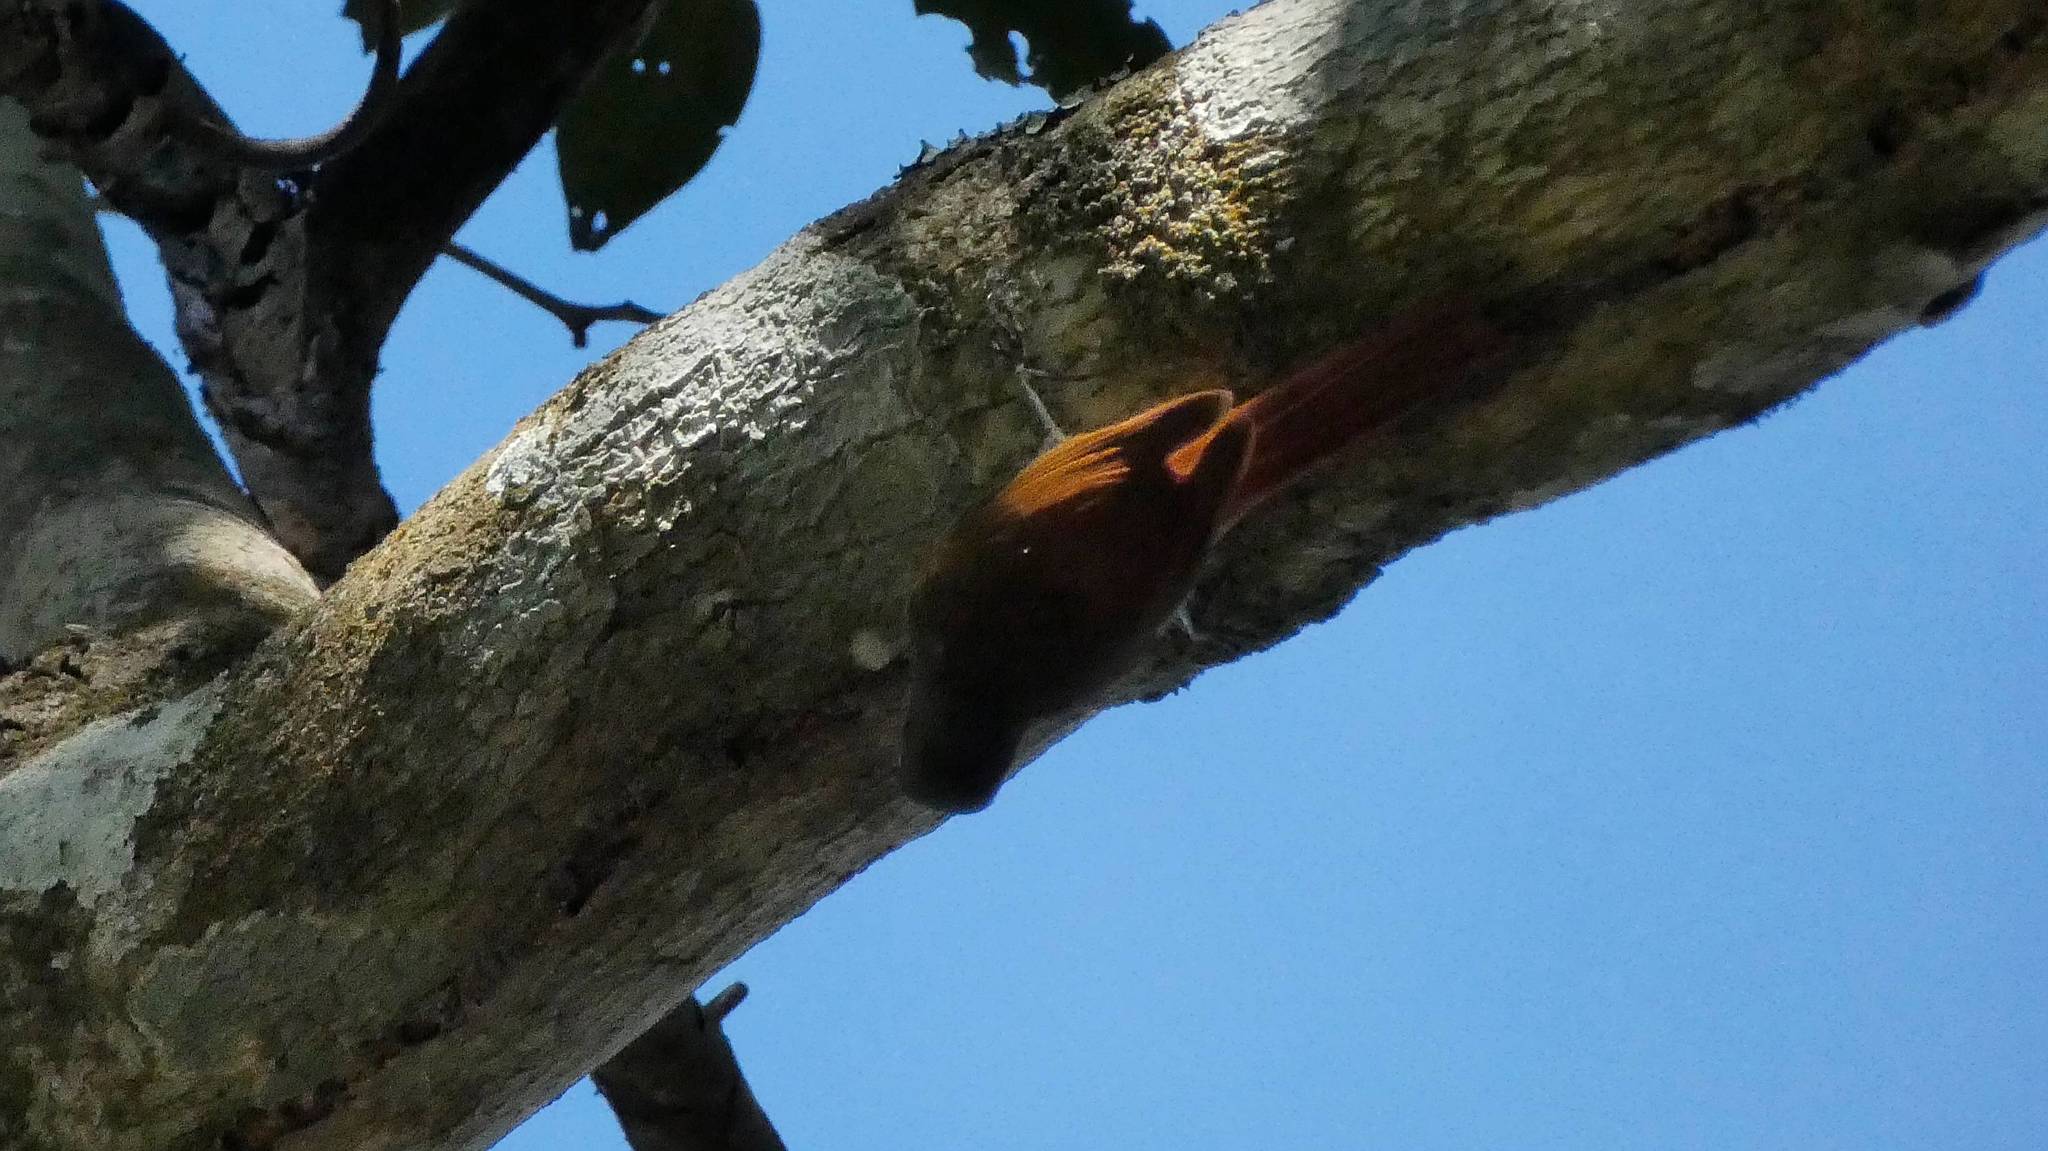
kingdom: Animalia
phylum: Chordata
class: Aves
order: Passeriformes
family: Furnariidae
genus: Sittasomus
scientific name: Sittasomus griseicapillus
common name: Olivaceous woodcreeper
